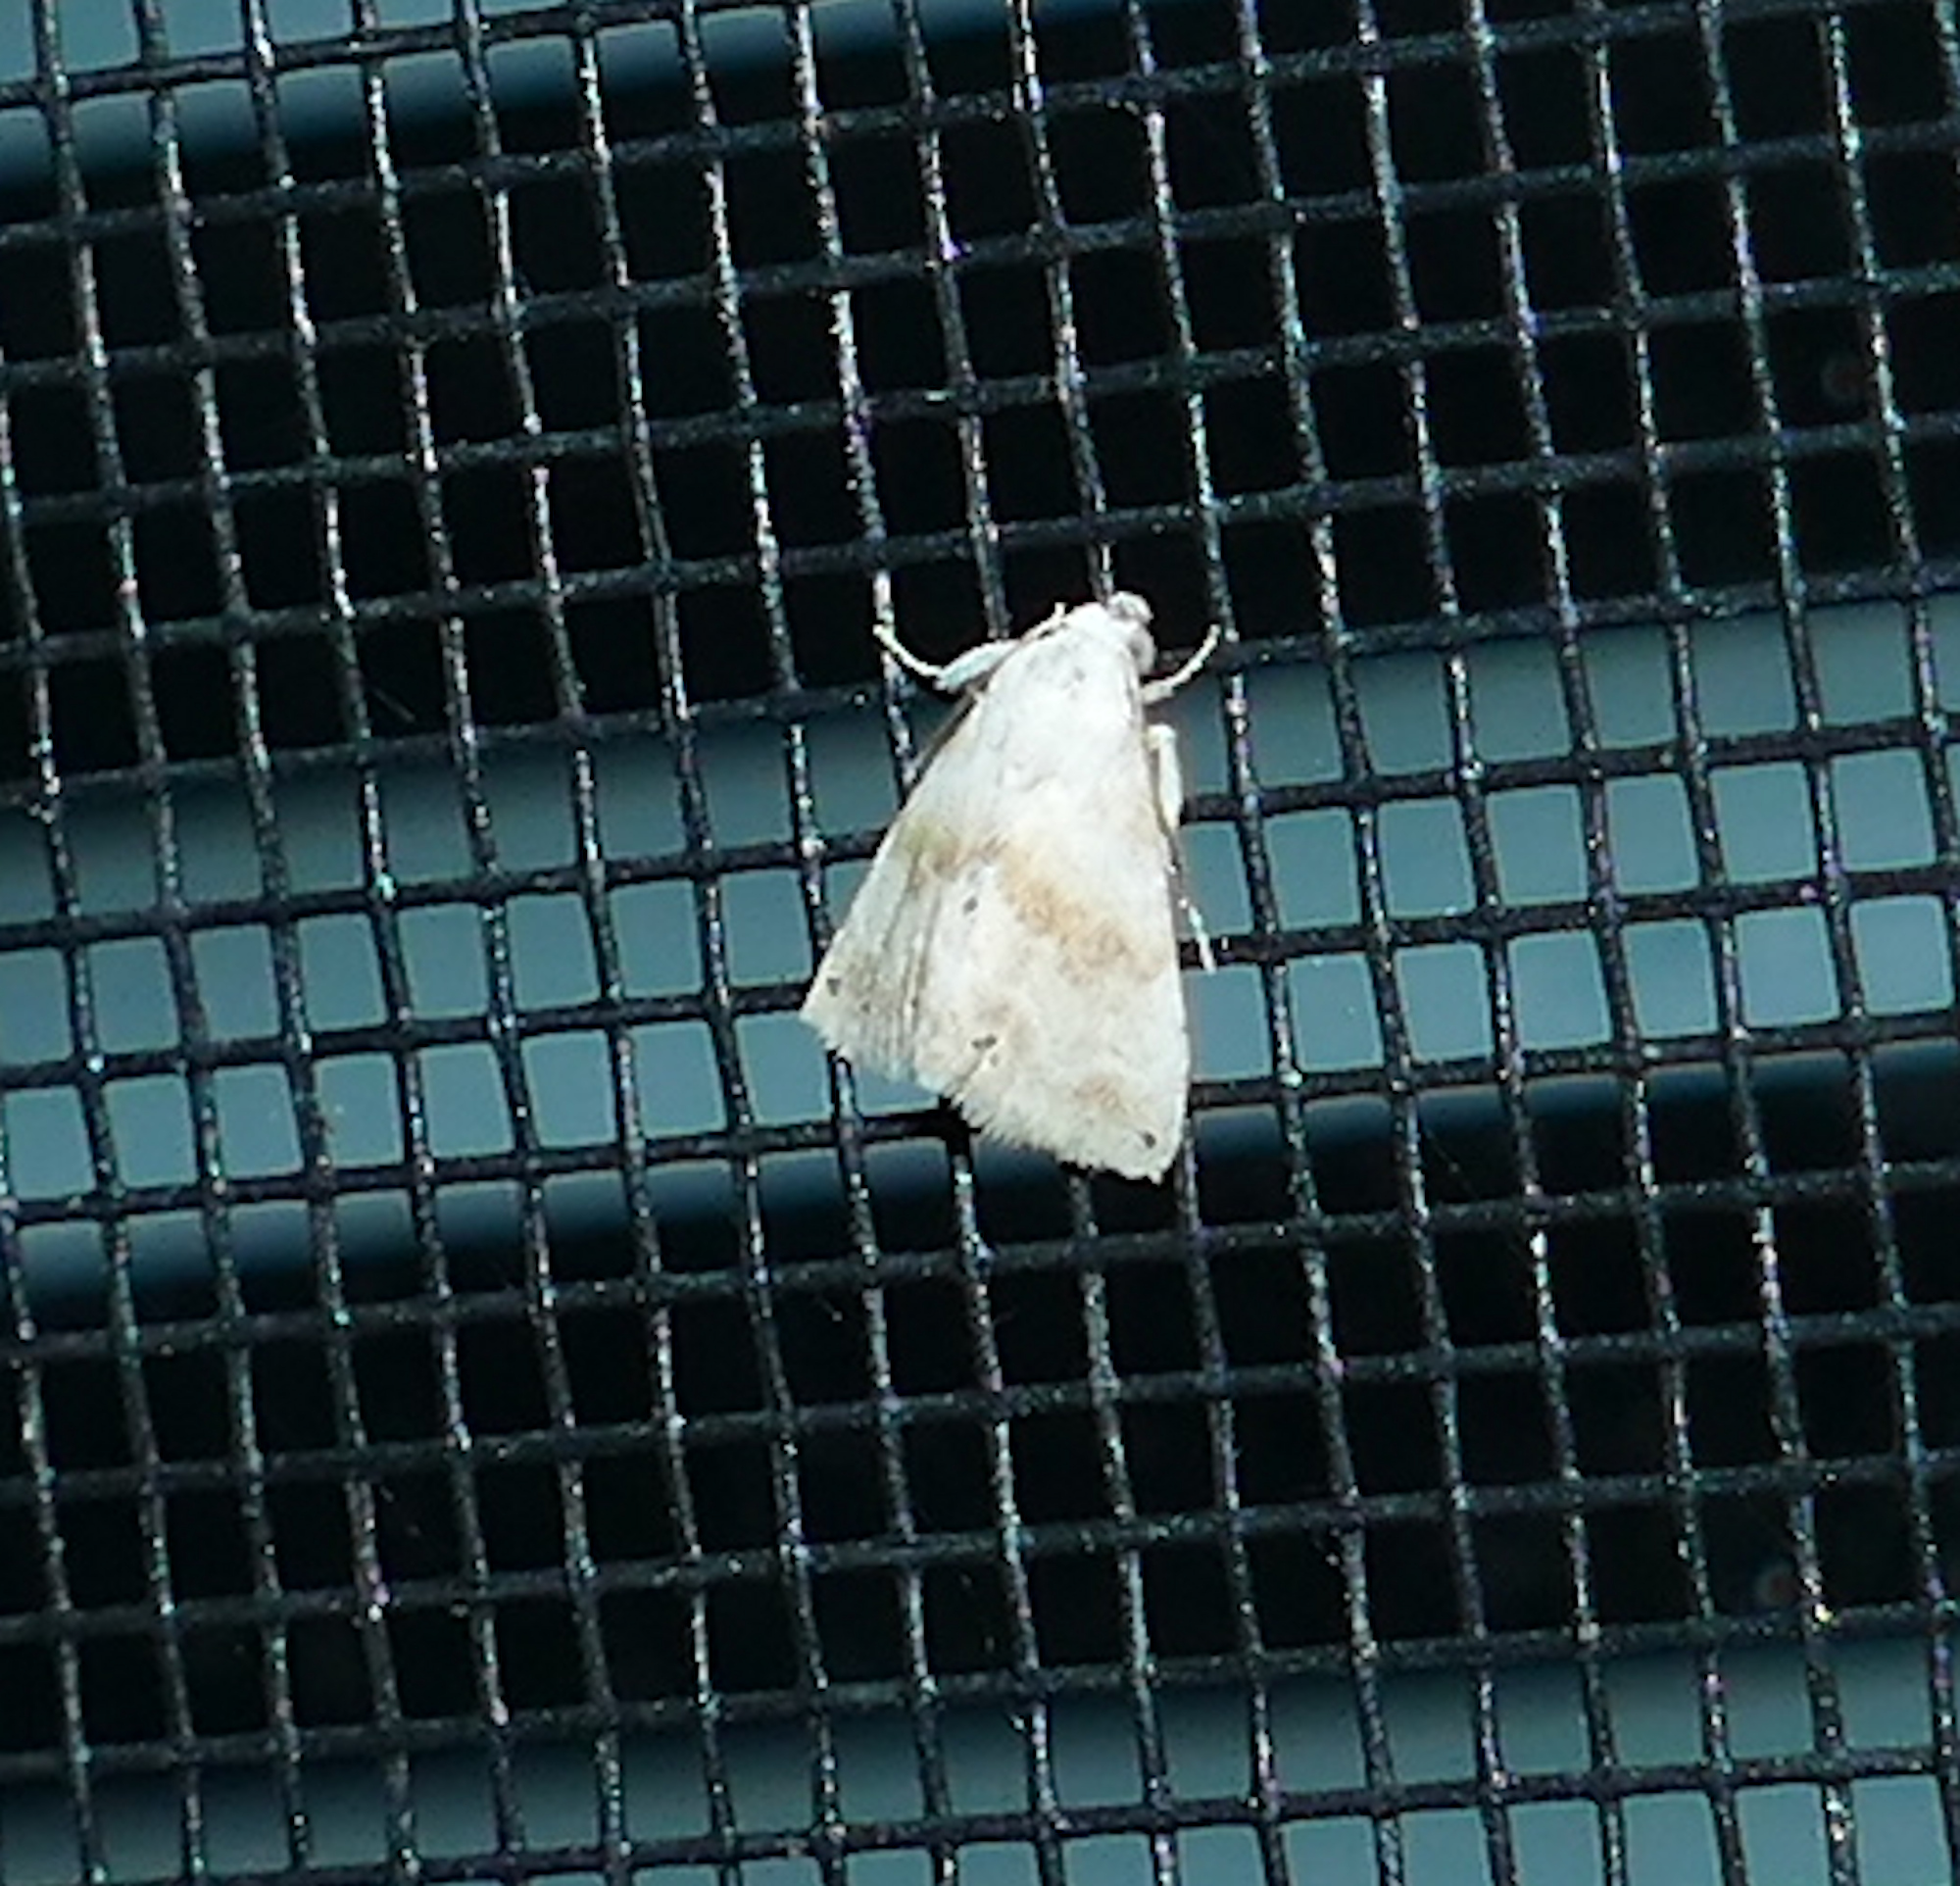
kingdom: Animalia
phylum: Arthropoda
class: Insecta
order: Lepidoptera
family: Noctuidae
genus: Eublemma
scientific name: Eublemma minima
